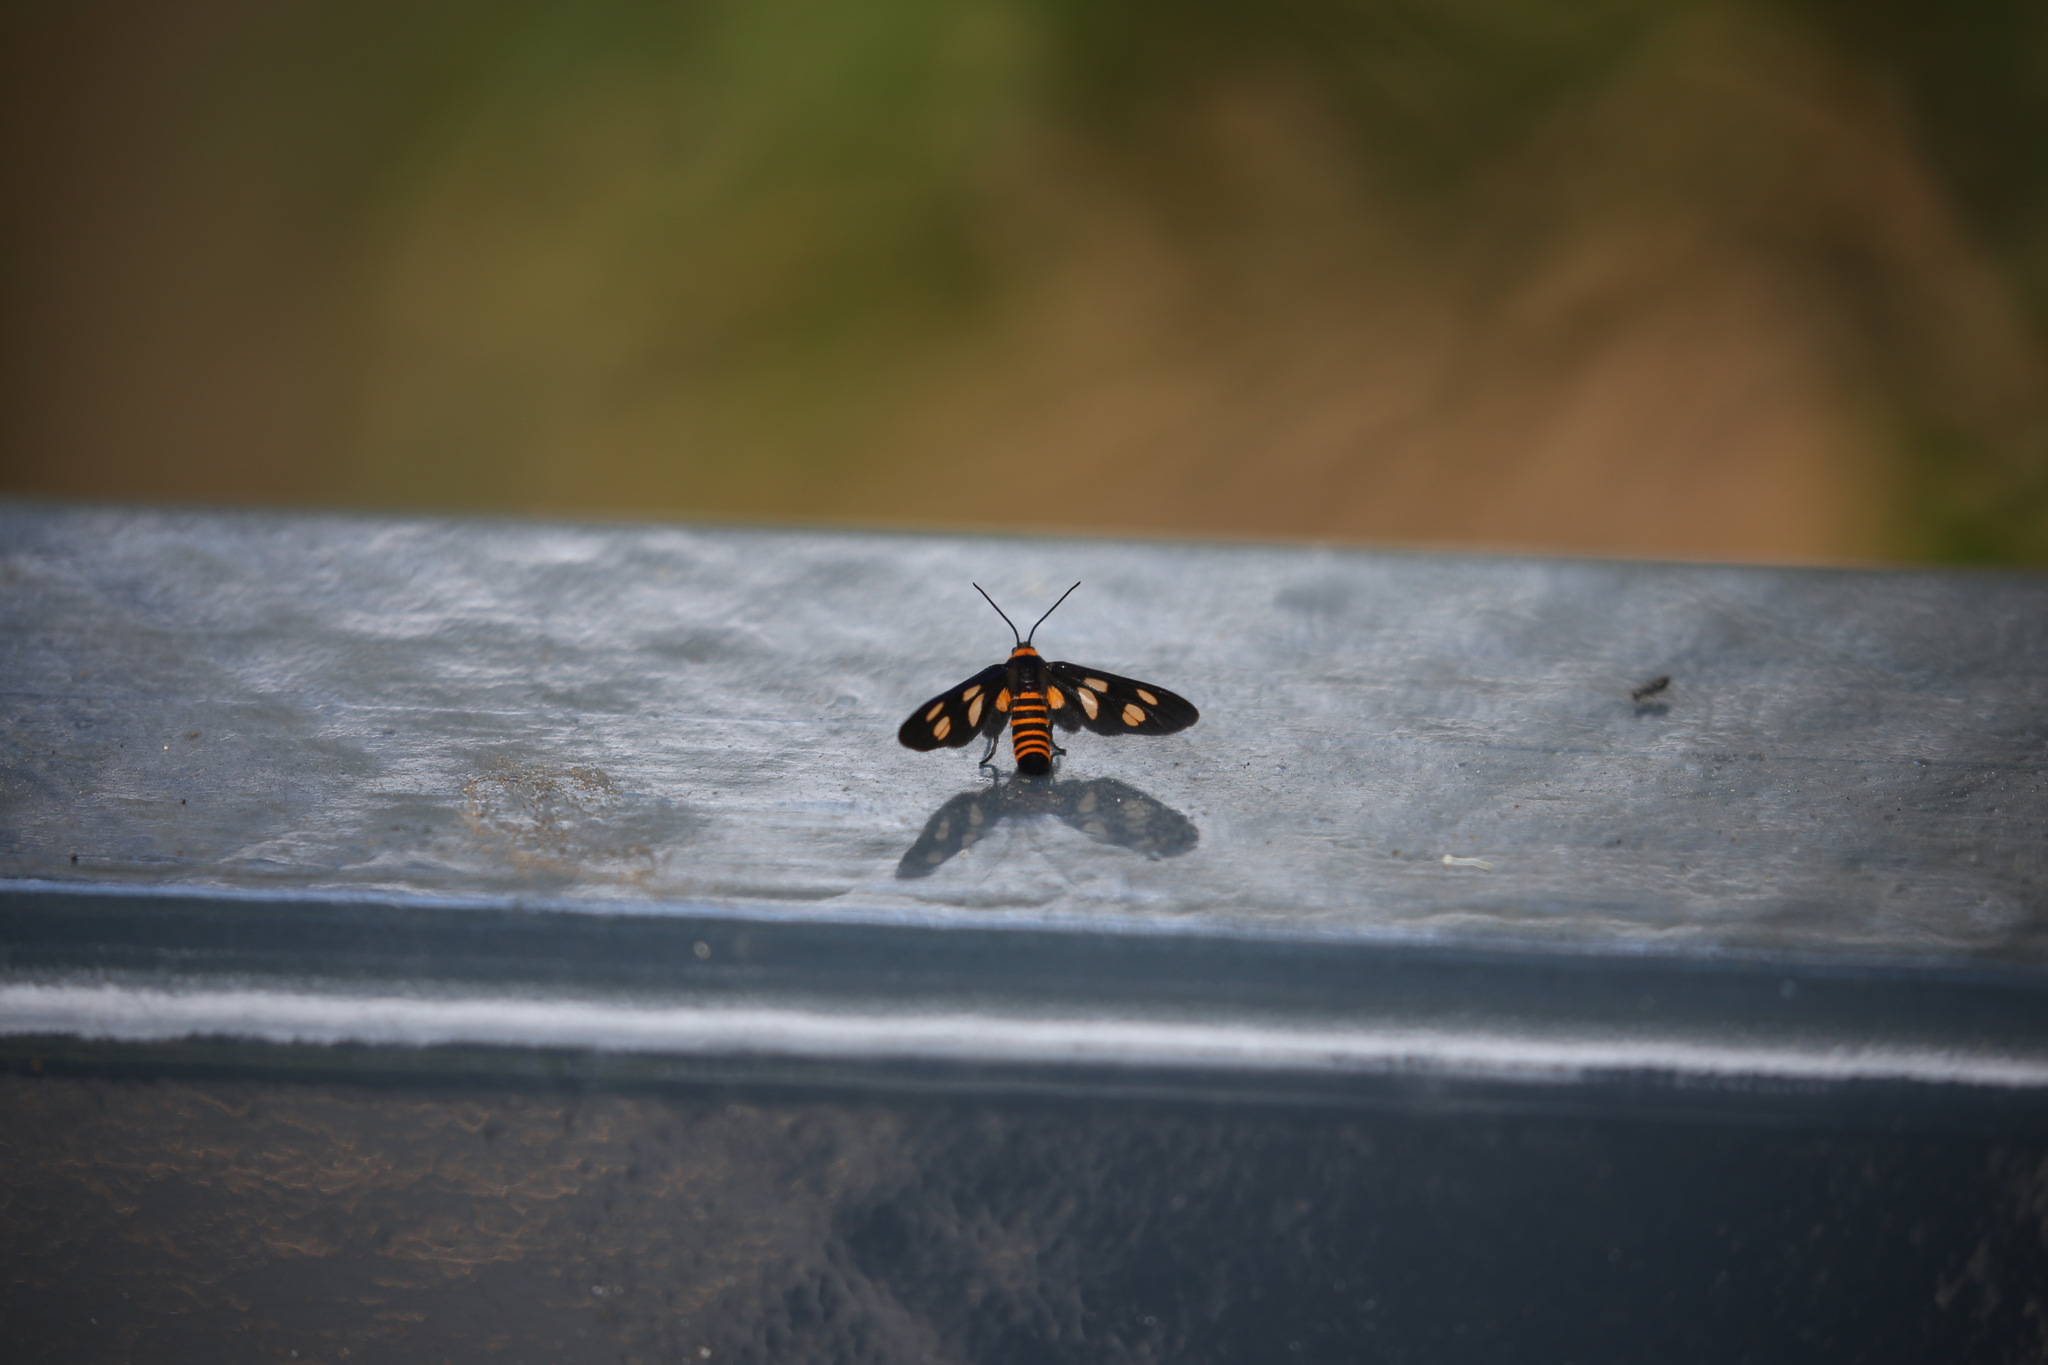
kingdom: Animalia
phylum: Arthropoda
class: Insecta
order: Lepidoptera
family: Erebidae
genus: Eressa
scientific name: Eressa angustipenna
